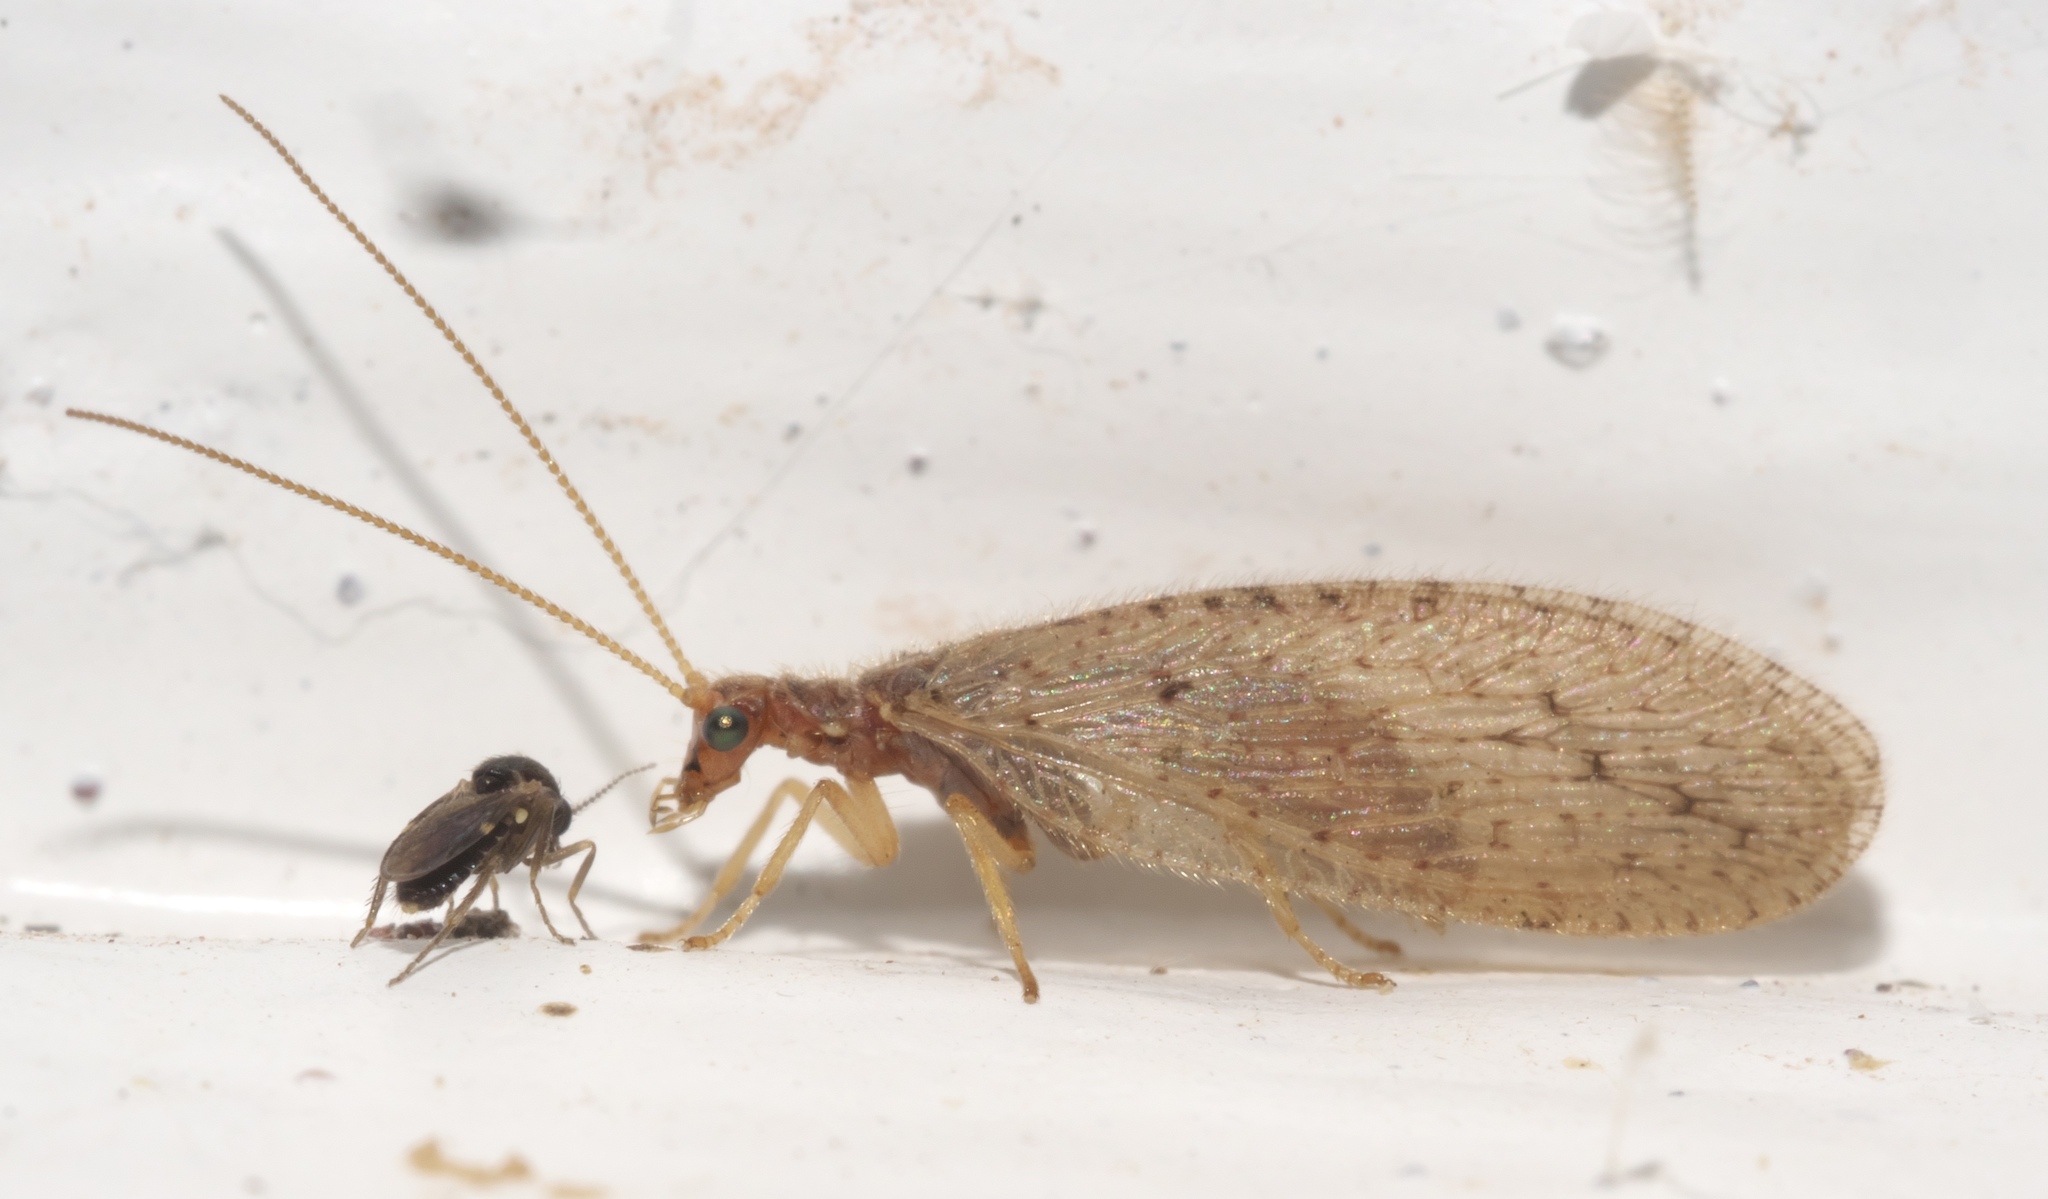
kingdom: Animalia
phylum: Arthropoda
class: Insecta
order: Neuroptera
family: Hemerobiidae
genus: Micromus
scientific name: Micromus subanticus
